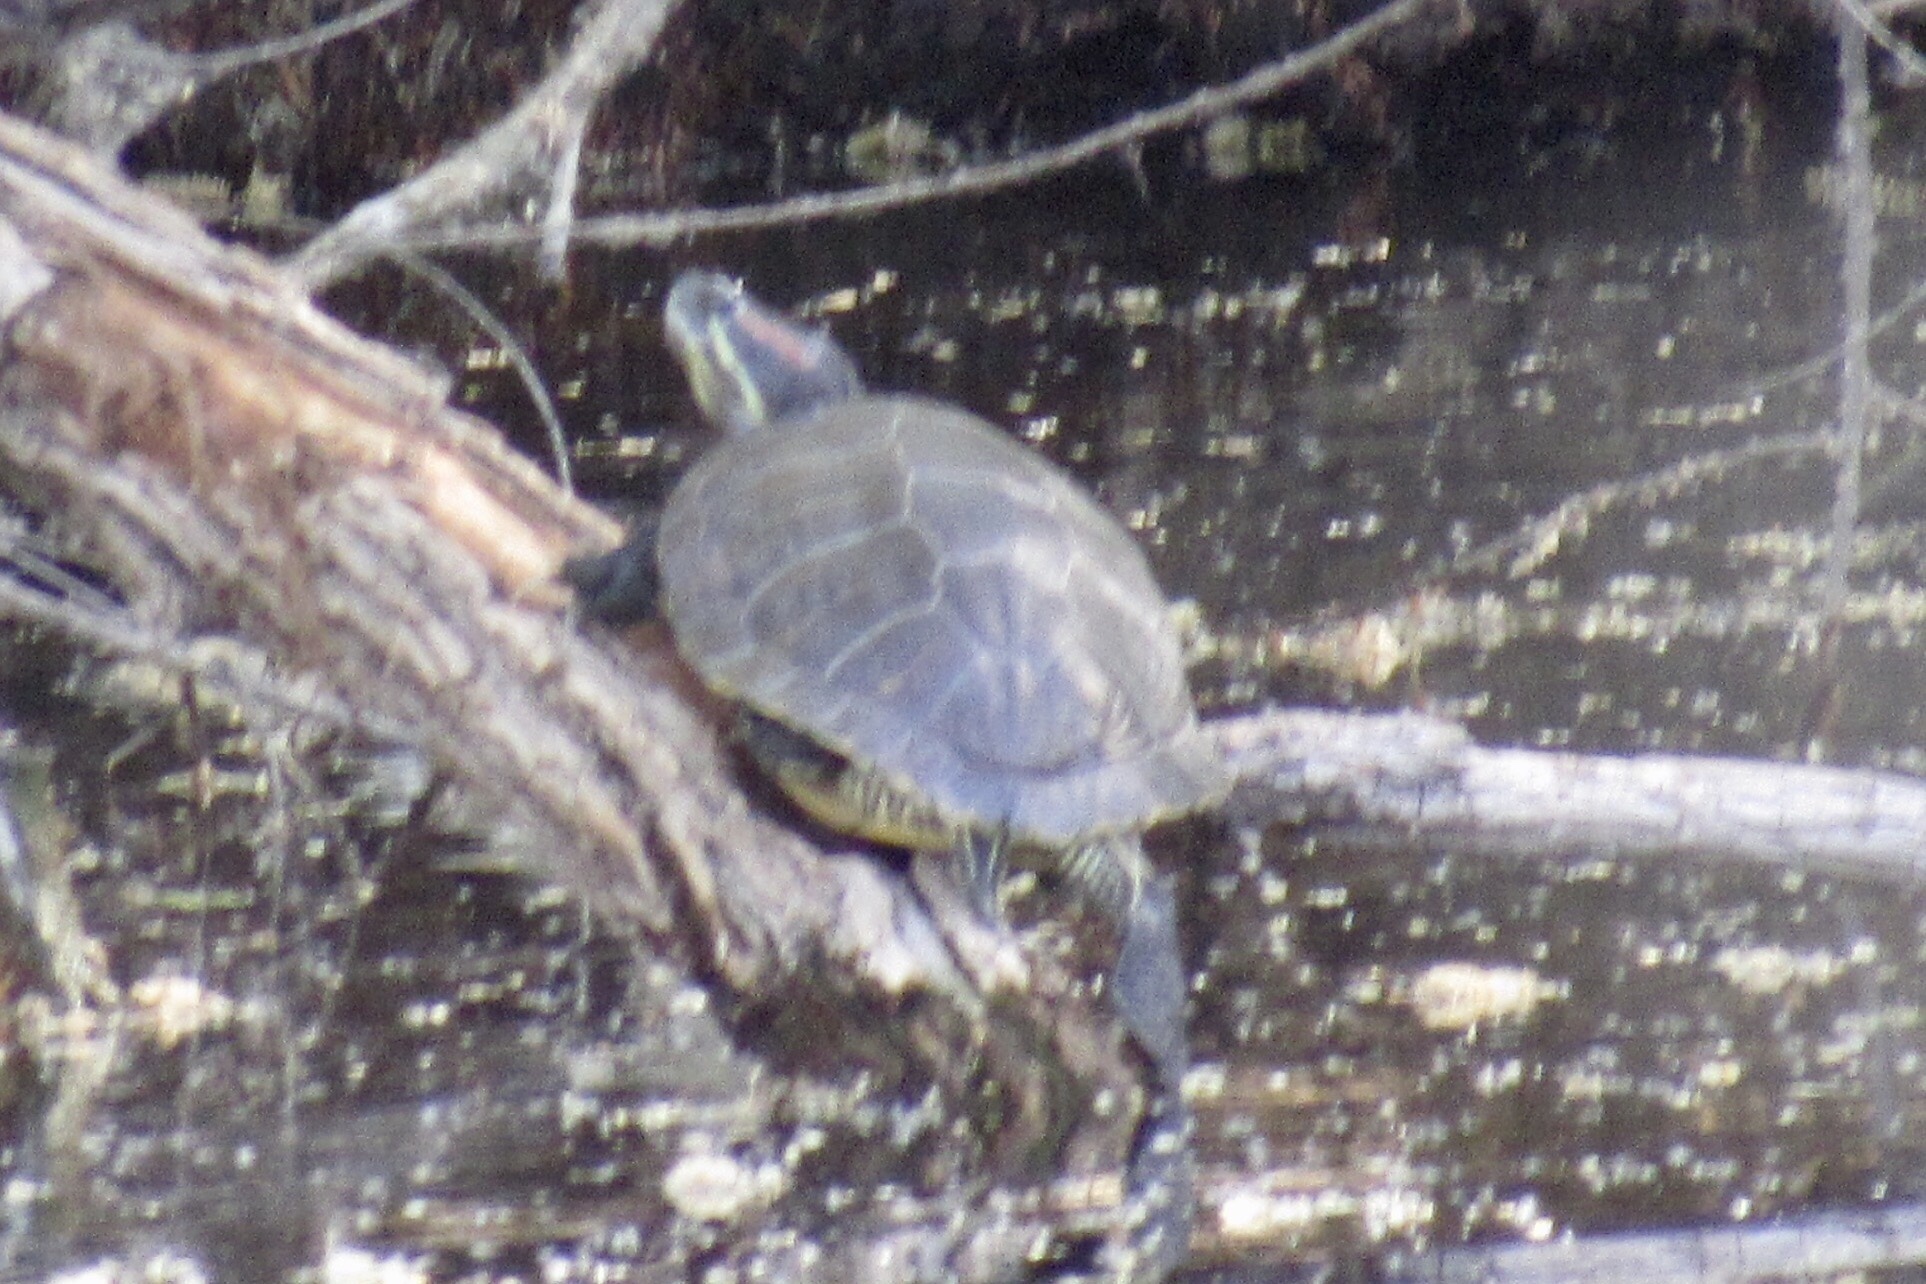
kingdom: Animalia
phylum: Chordata
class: Testudines
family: Emydidae
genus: Trachemys
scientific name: Trachemys scripta
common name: Slider
